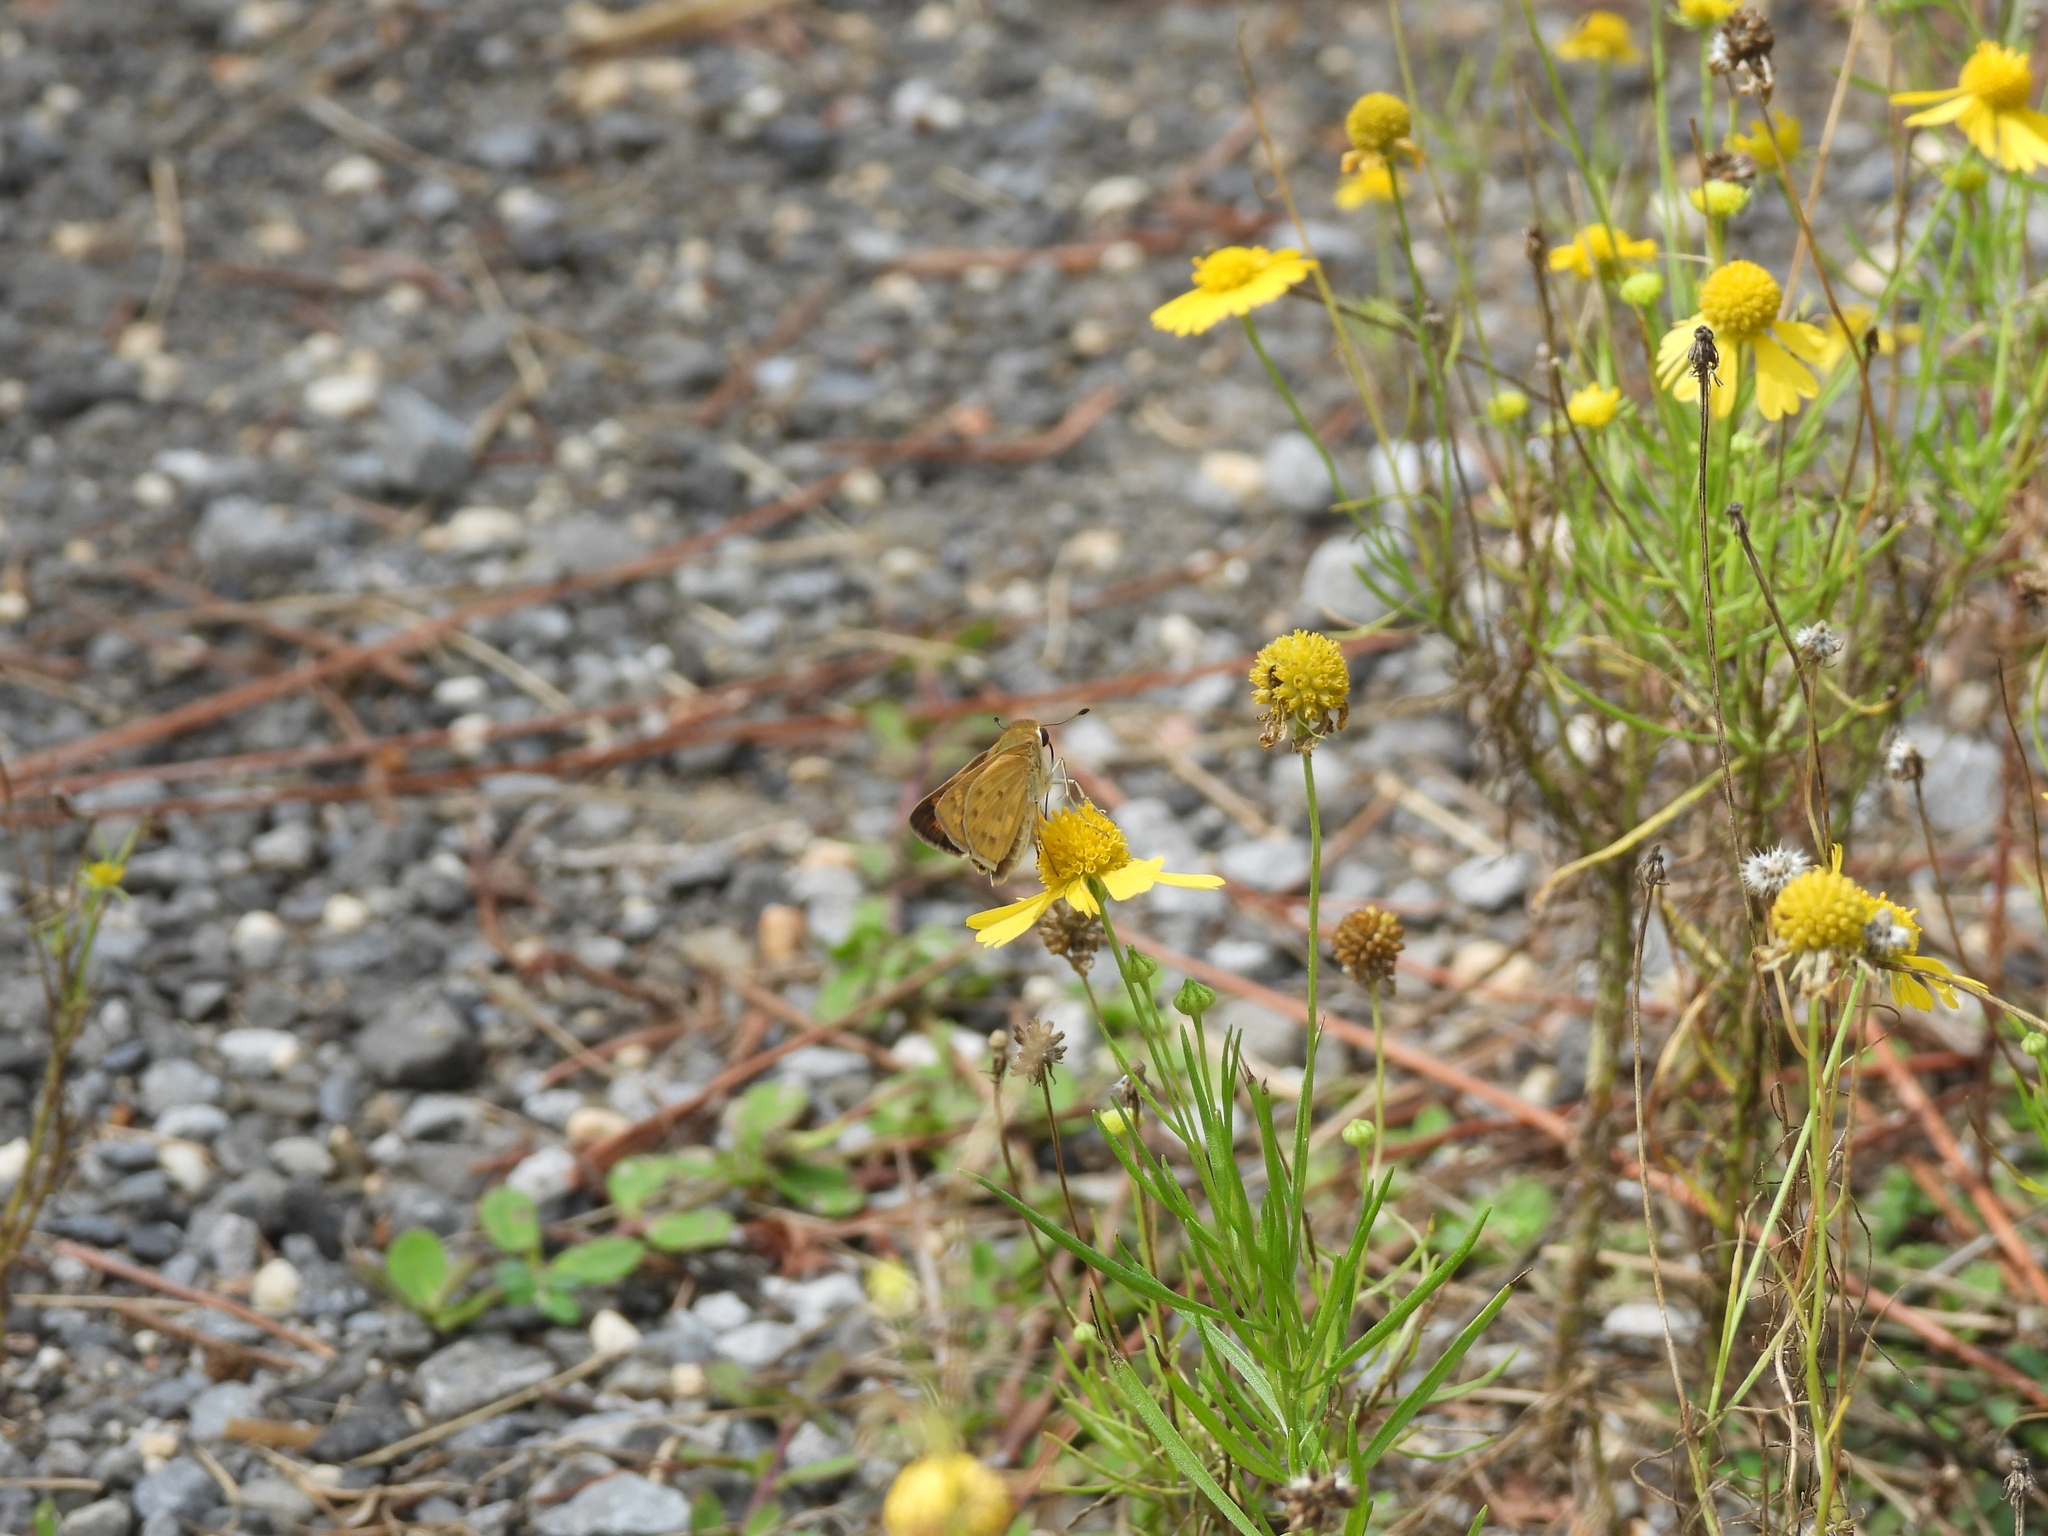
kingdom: Animalia
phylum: Arthropoda
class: Insecta
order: Lepidoptera
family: Hesperiidae
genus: Hylephila
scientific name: Hylephila phyleus
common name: Fiery skipper
